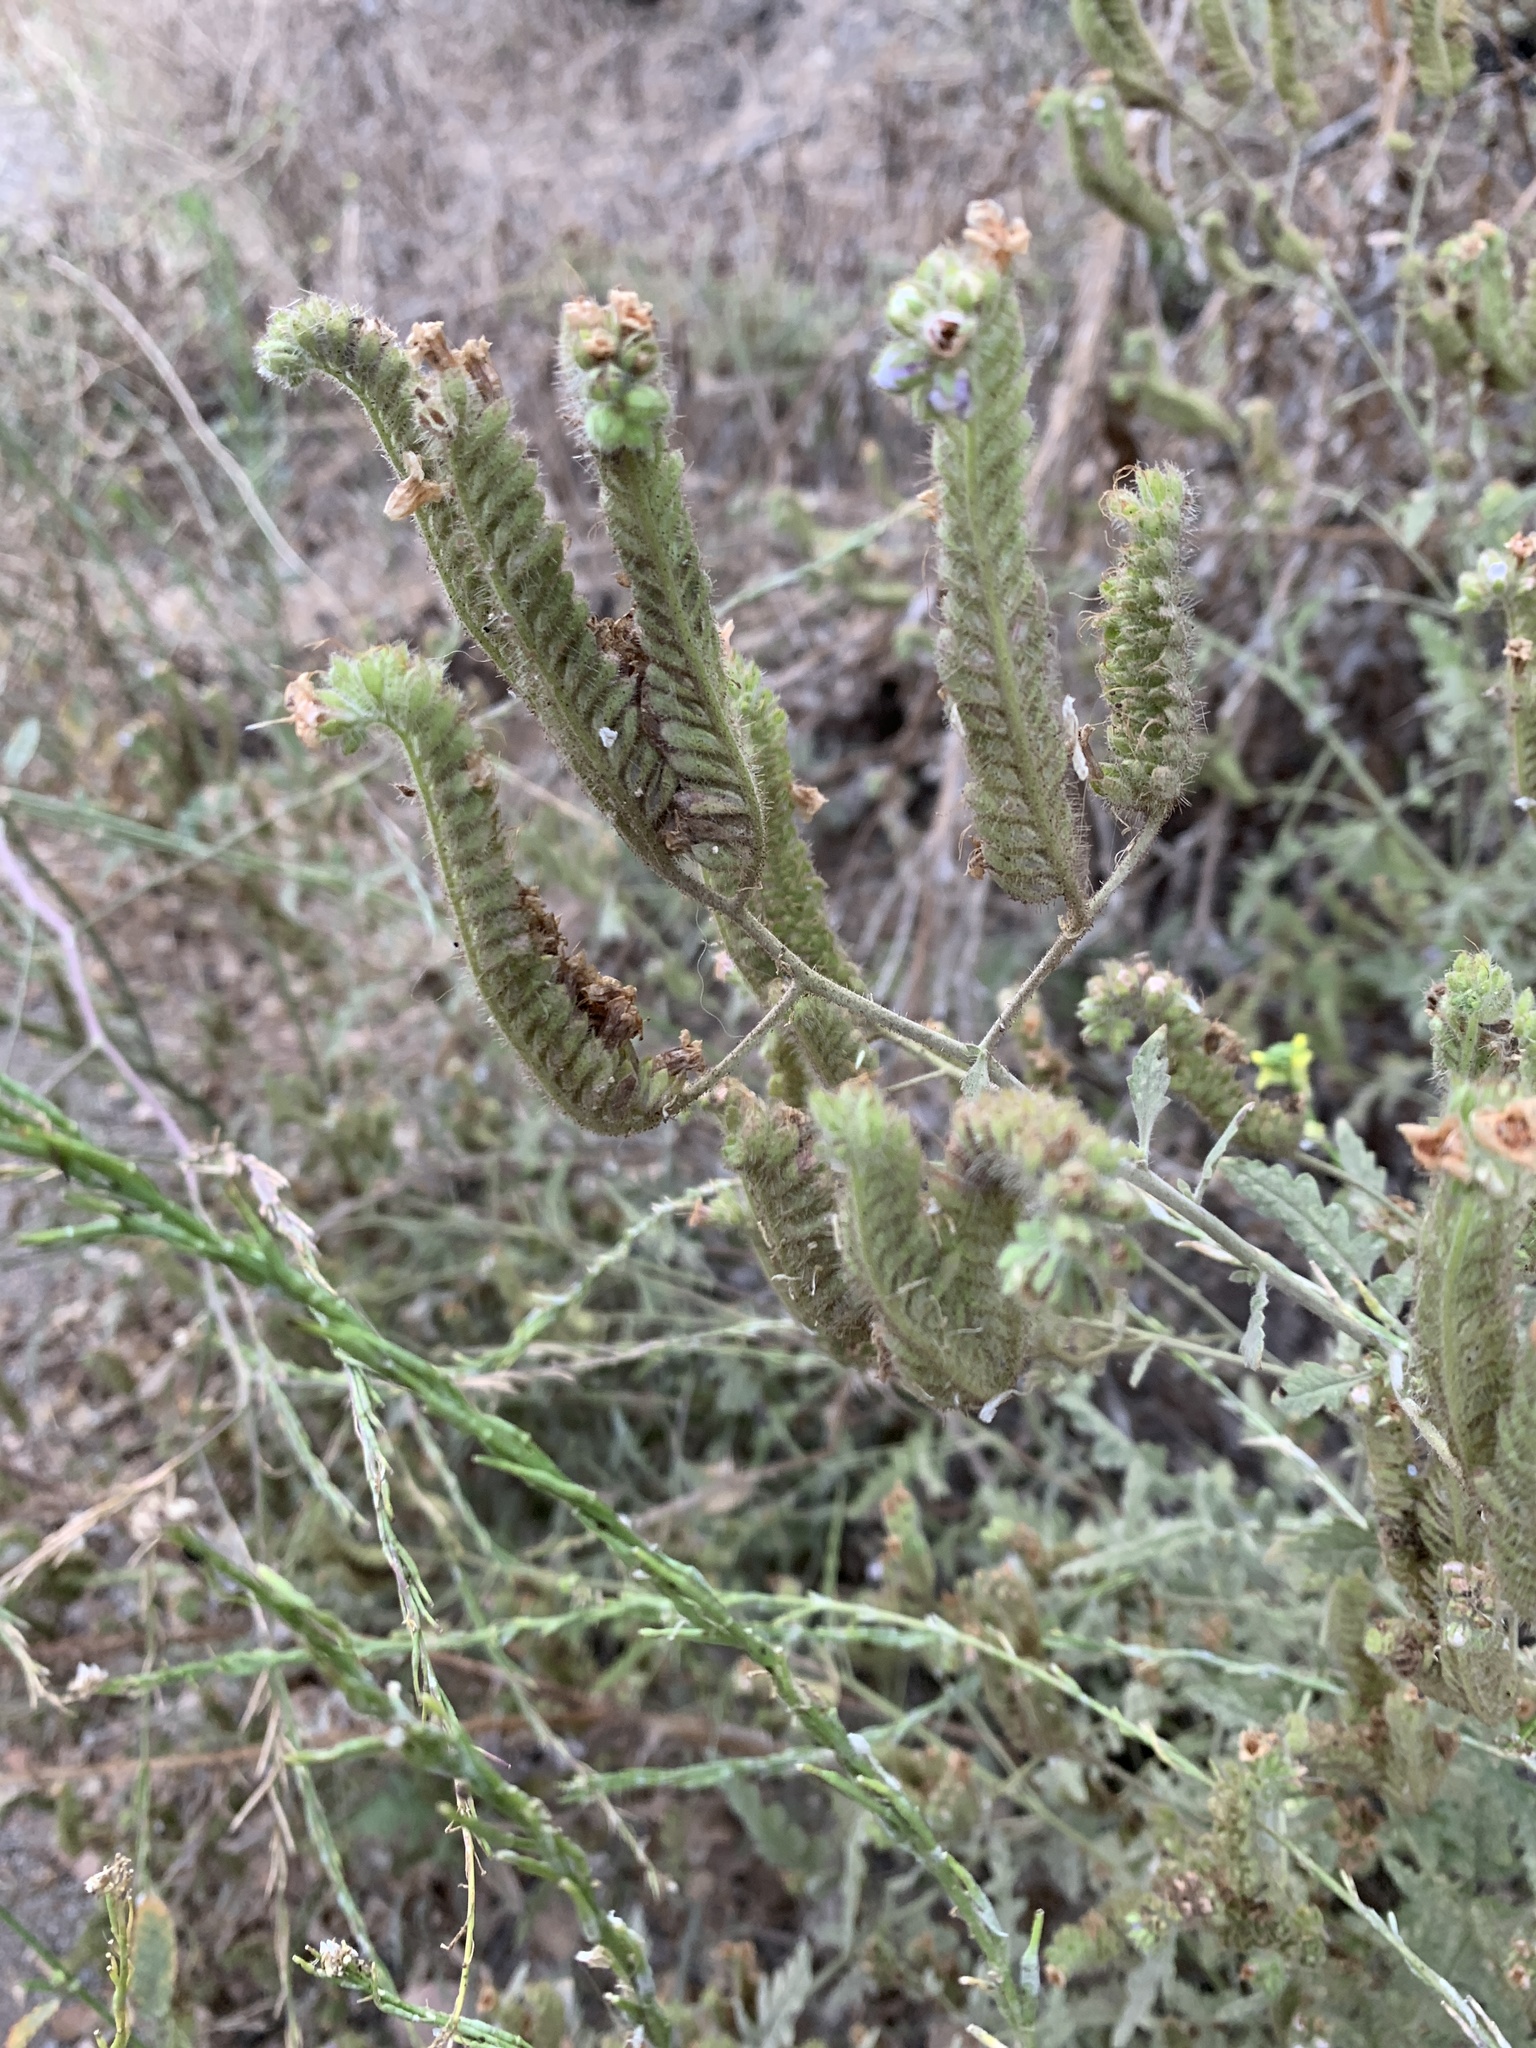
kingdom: Plantae
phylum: Tracheophyta
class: Magnoliopsida
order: Boraginales
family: Hydrophyllaceae
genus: Phacelia
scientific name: Phacelia ramosissima
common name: Branching phacelia
